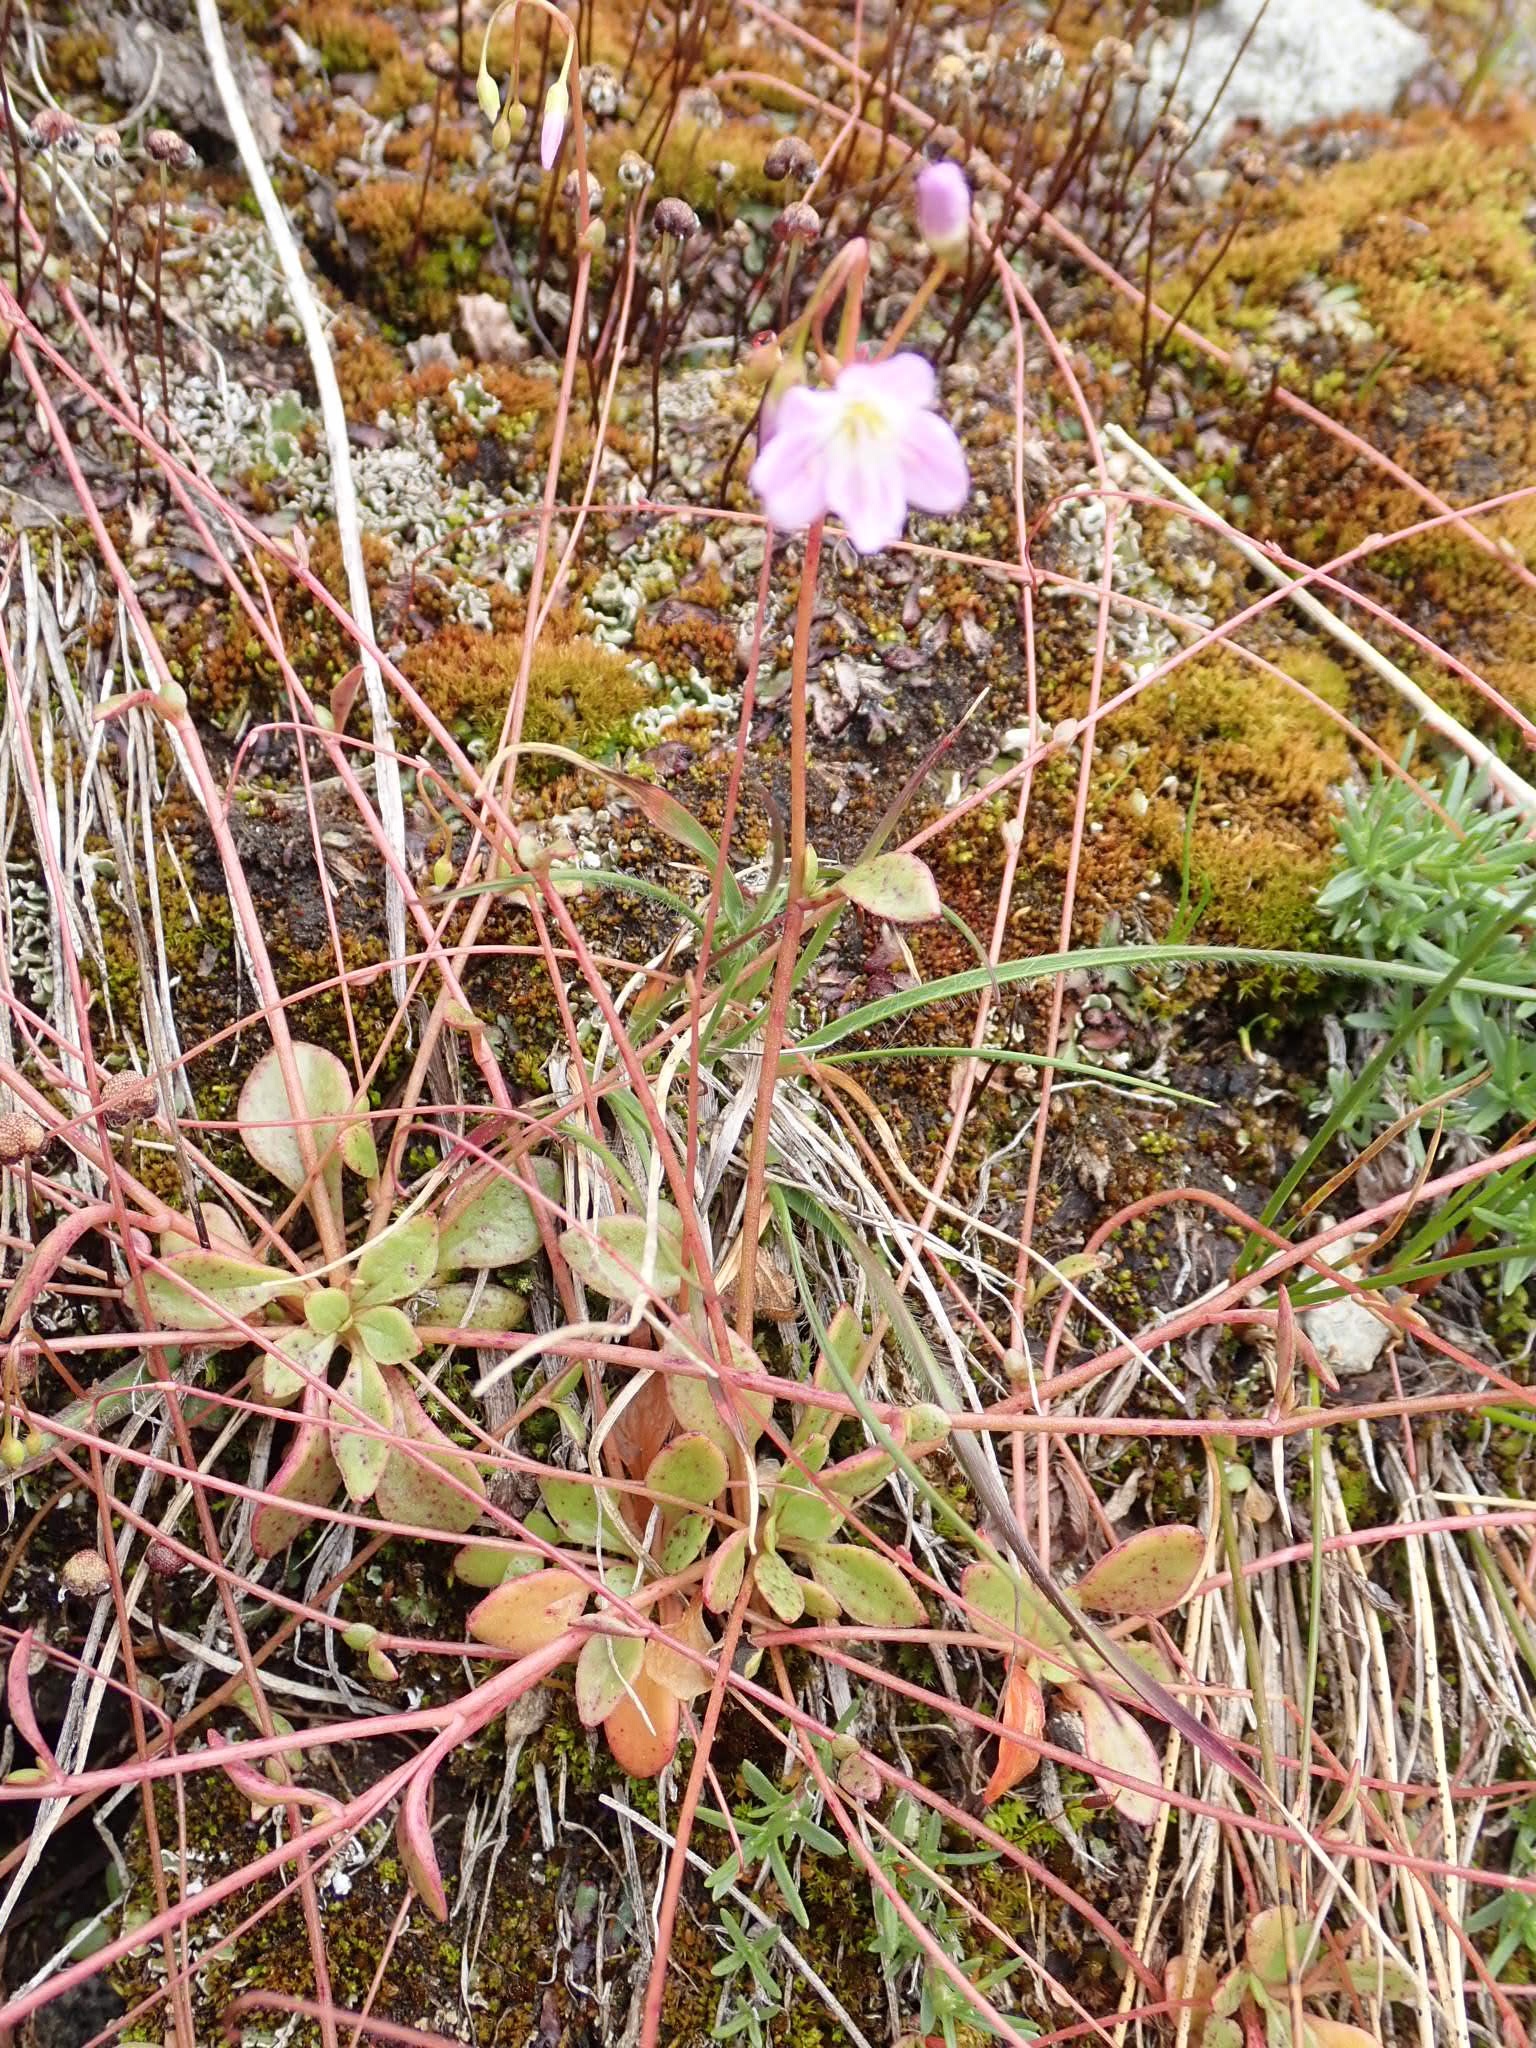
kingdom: Plantae
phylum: Tracheophyta
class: Magnoliopsida
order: Caryophyllales
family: Montiaceae
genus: Montia
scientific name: Montia parvifolia
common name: Small-leaved blinks
